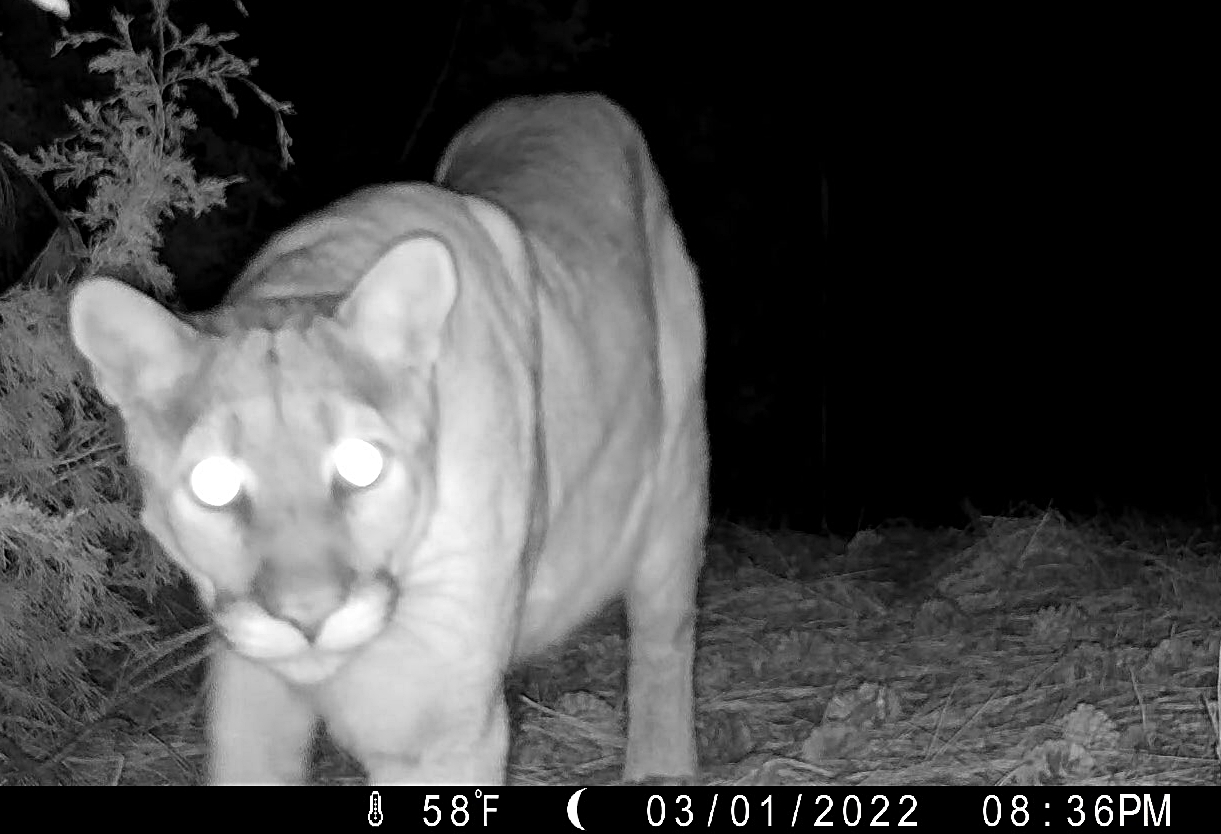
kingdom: Animalia
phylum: Chordata
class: Mammalia
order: Carnivora
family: Felidae
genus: Puma
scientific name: Puma concolor
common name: Puma
